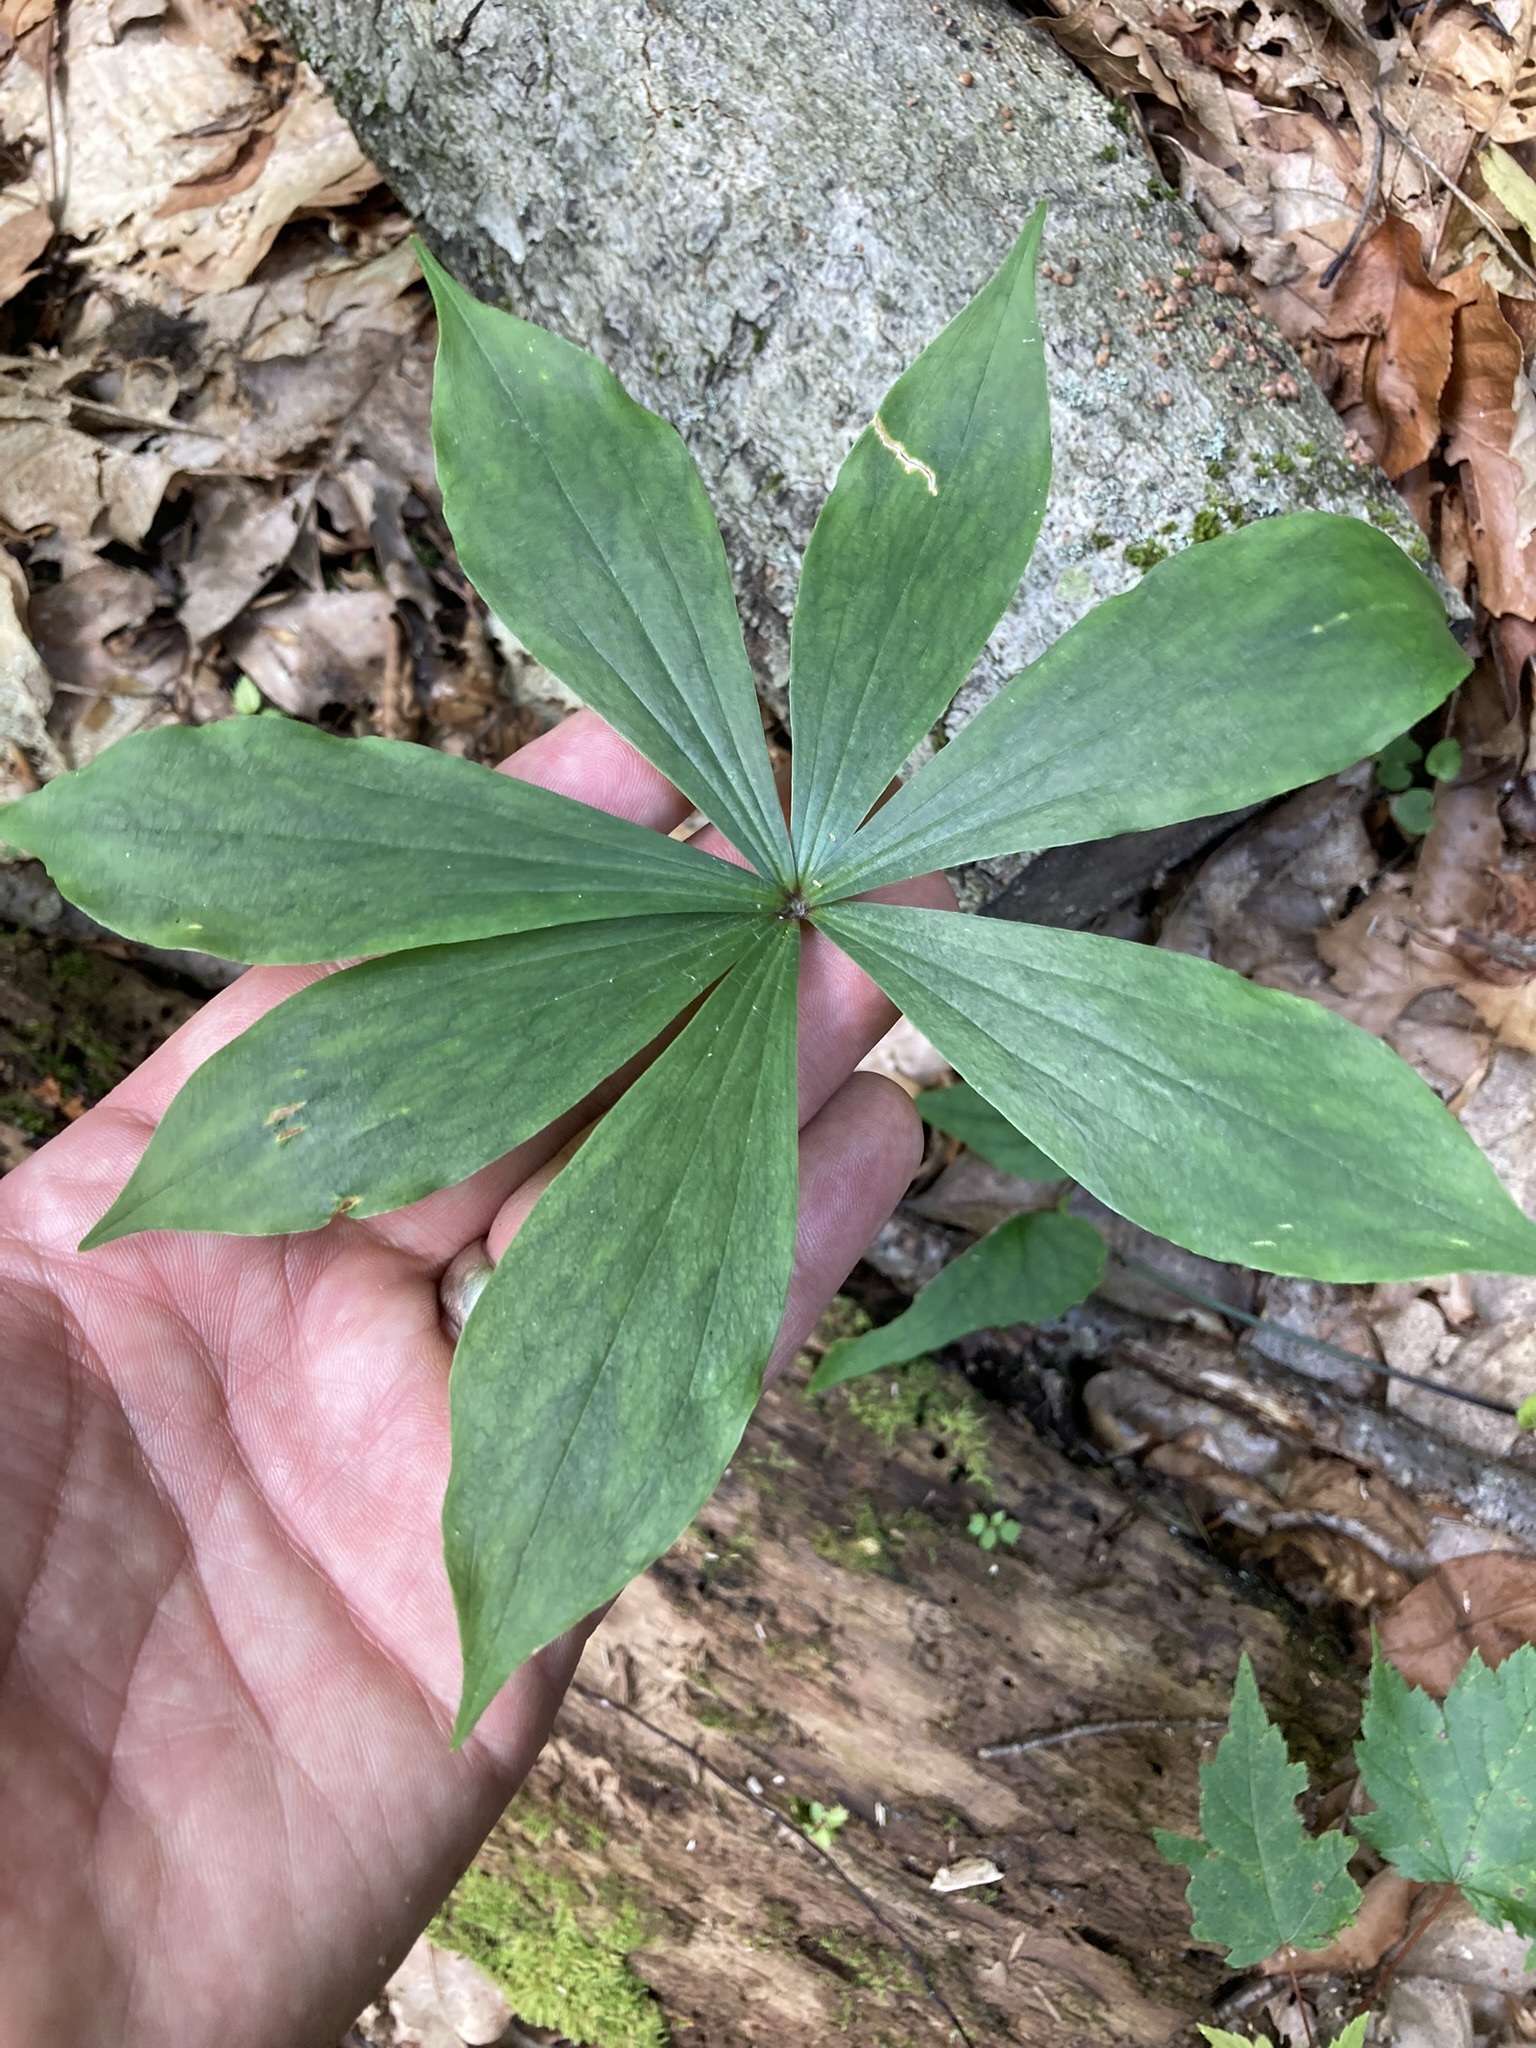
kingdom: Plantae
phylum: Tracheophyta
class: Liliopsida
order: Liliales
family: Liliaceae
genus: Medeola
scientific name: Medeola virginiana
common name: Indian cucumber-root
